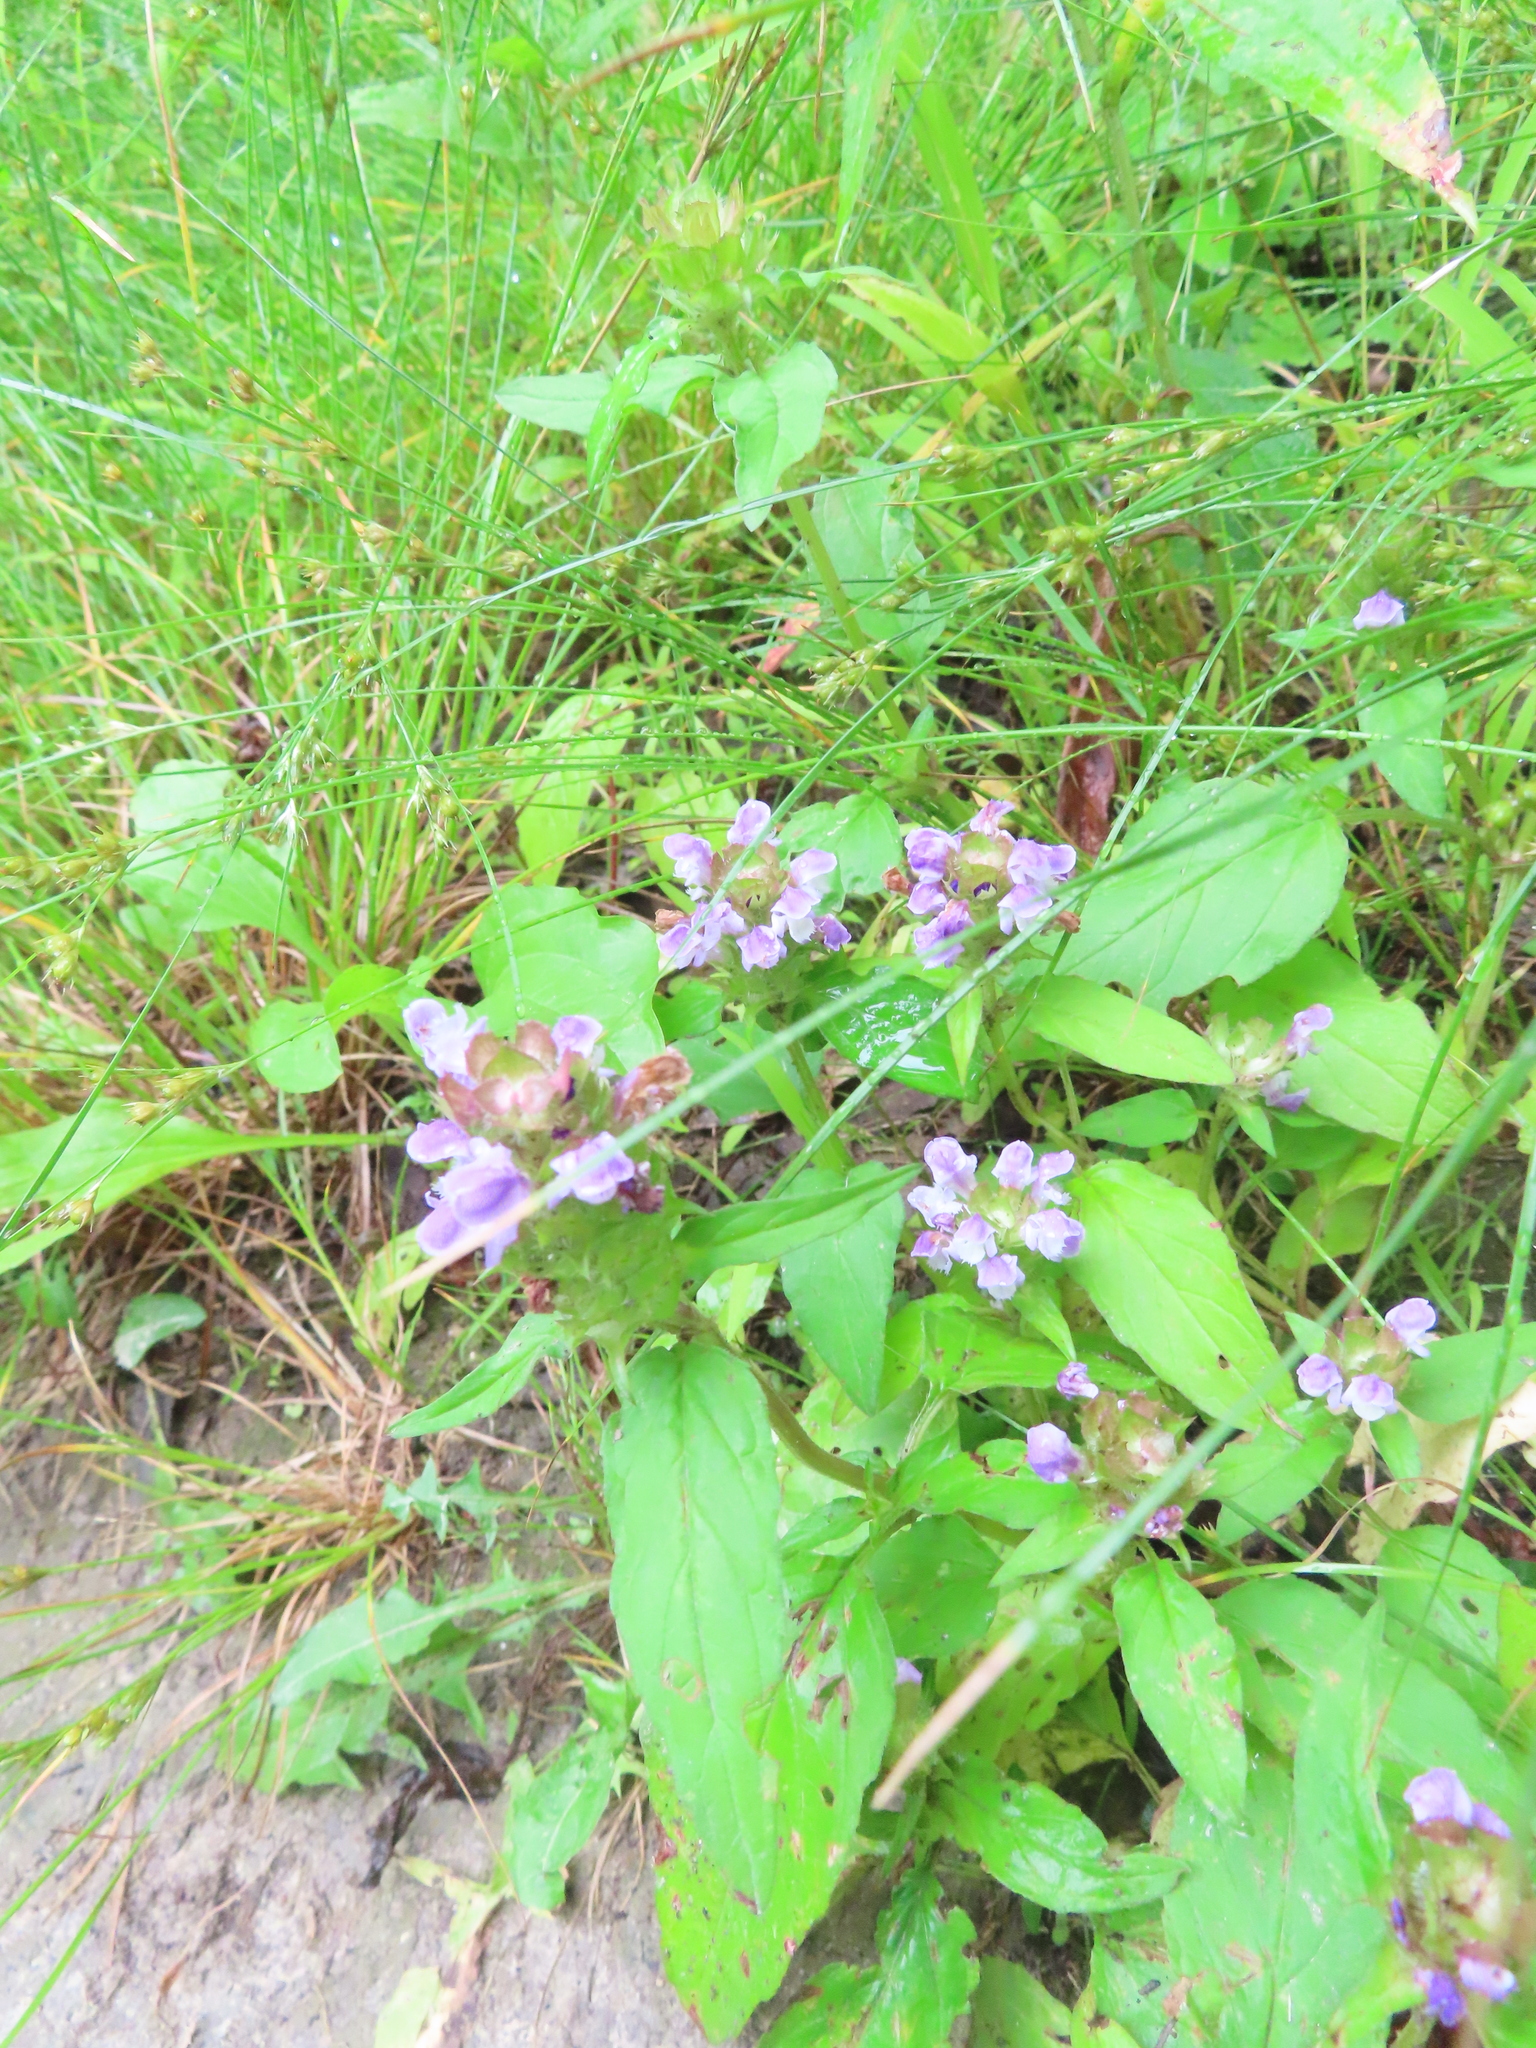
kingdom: Plantae
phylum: Tracheophyta
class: Magnoliopsida
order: Lamiales
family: Lamiaceae
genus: Prunella
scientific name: Prunella vulgaris
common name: Heal-all
